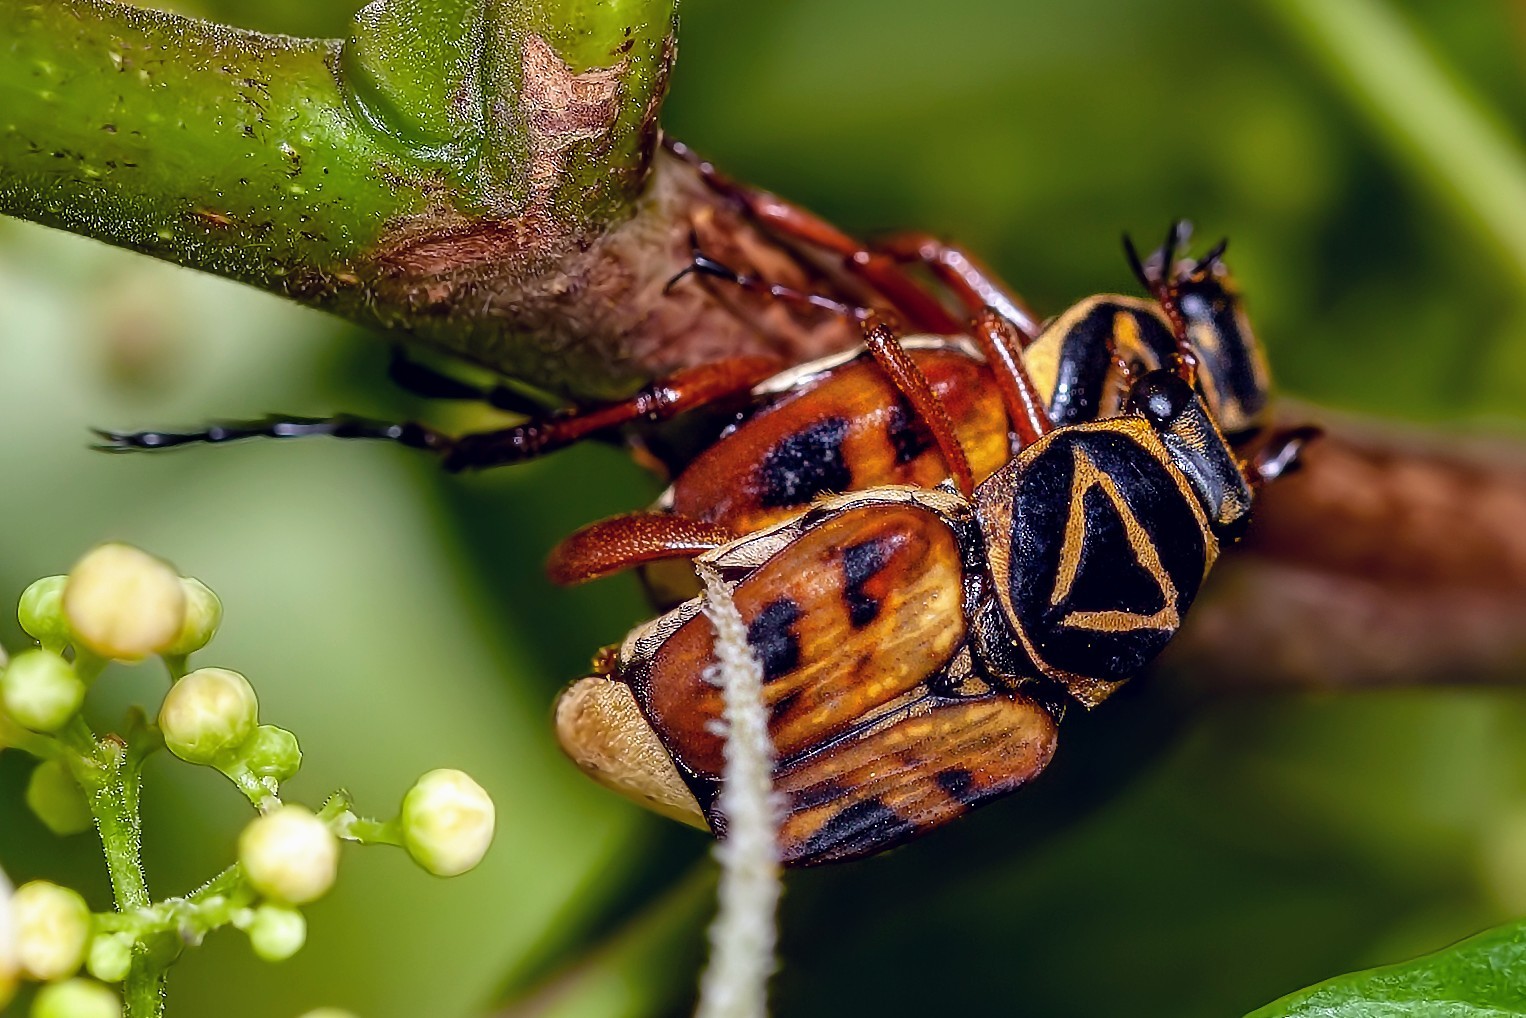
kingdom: Animalia
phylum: Arthropoda
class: Insecta
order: Coleoptera
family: Scarabaeidae
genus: Trigonopeltastes
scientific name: Trigonopeltastes delta
